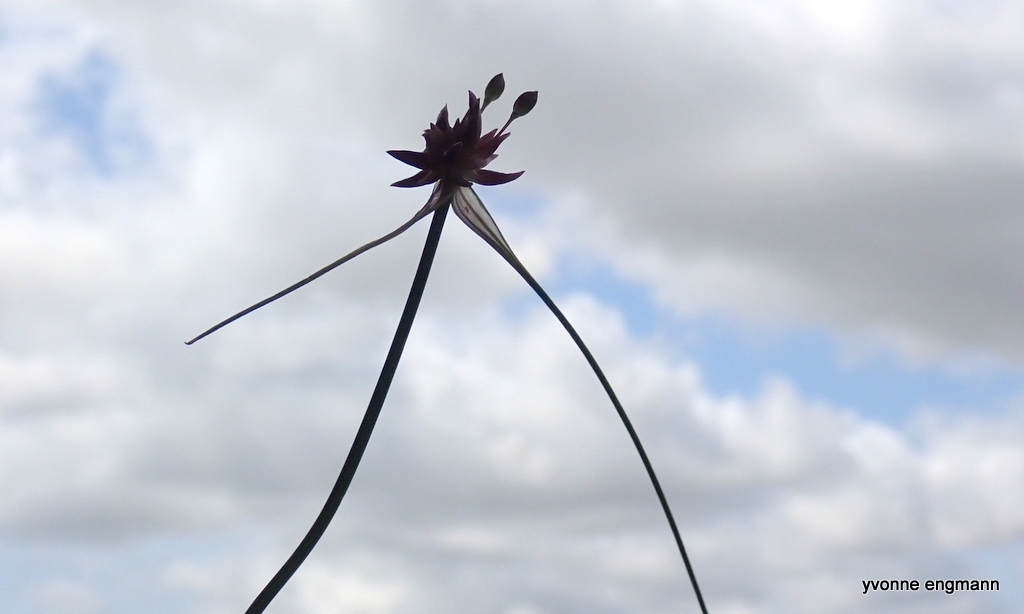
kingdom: Plantae
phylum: Tracheophyta
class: Liliopsida
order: Asparagales
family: Amaryllidaceae
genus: Allium
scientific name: Allium oleraceum
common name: Field garlic
